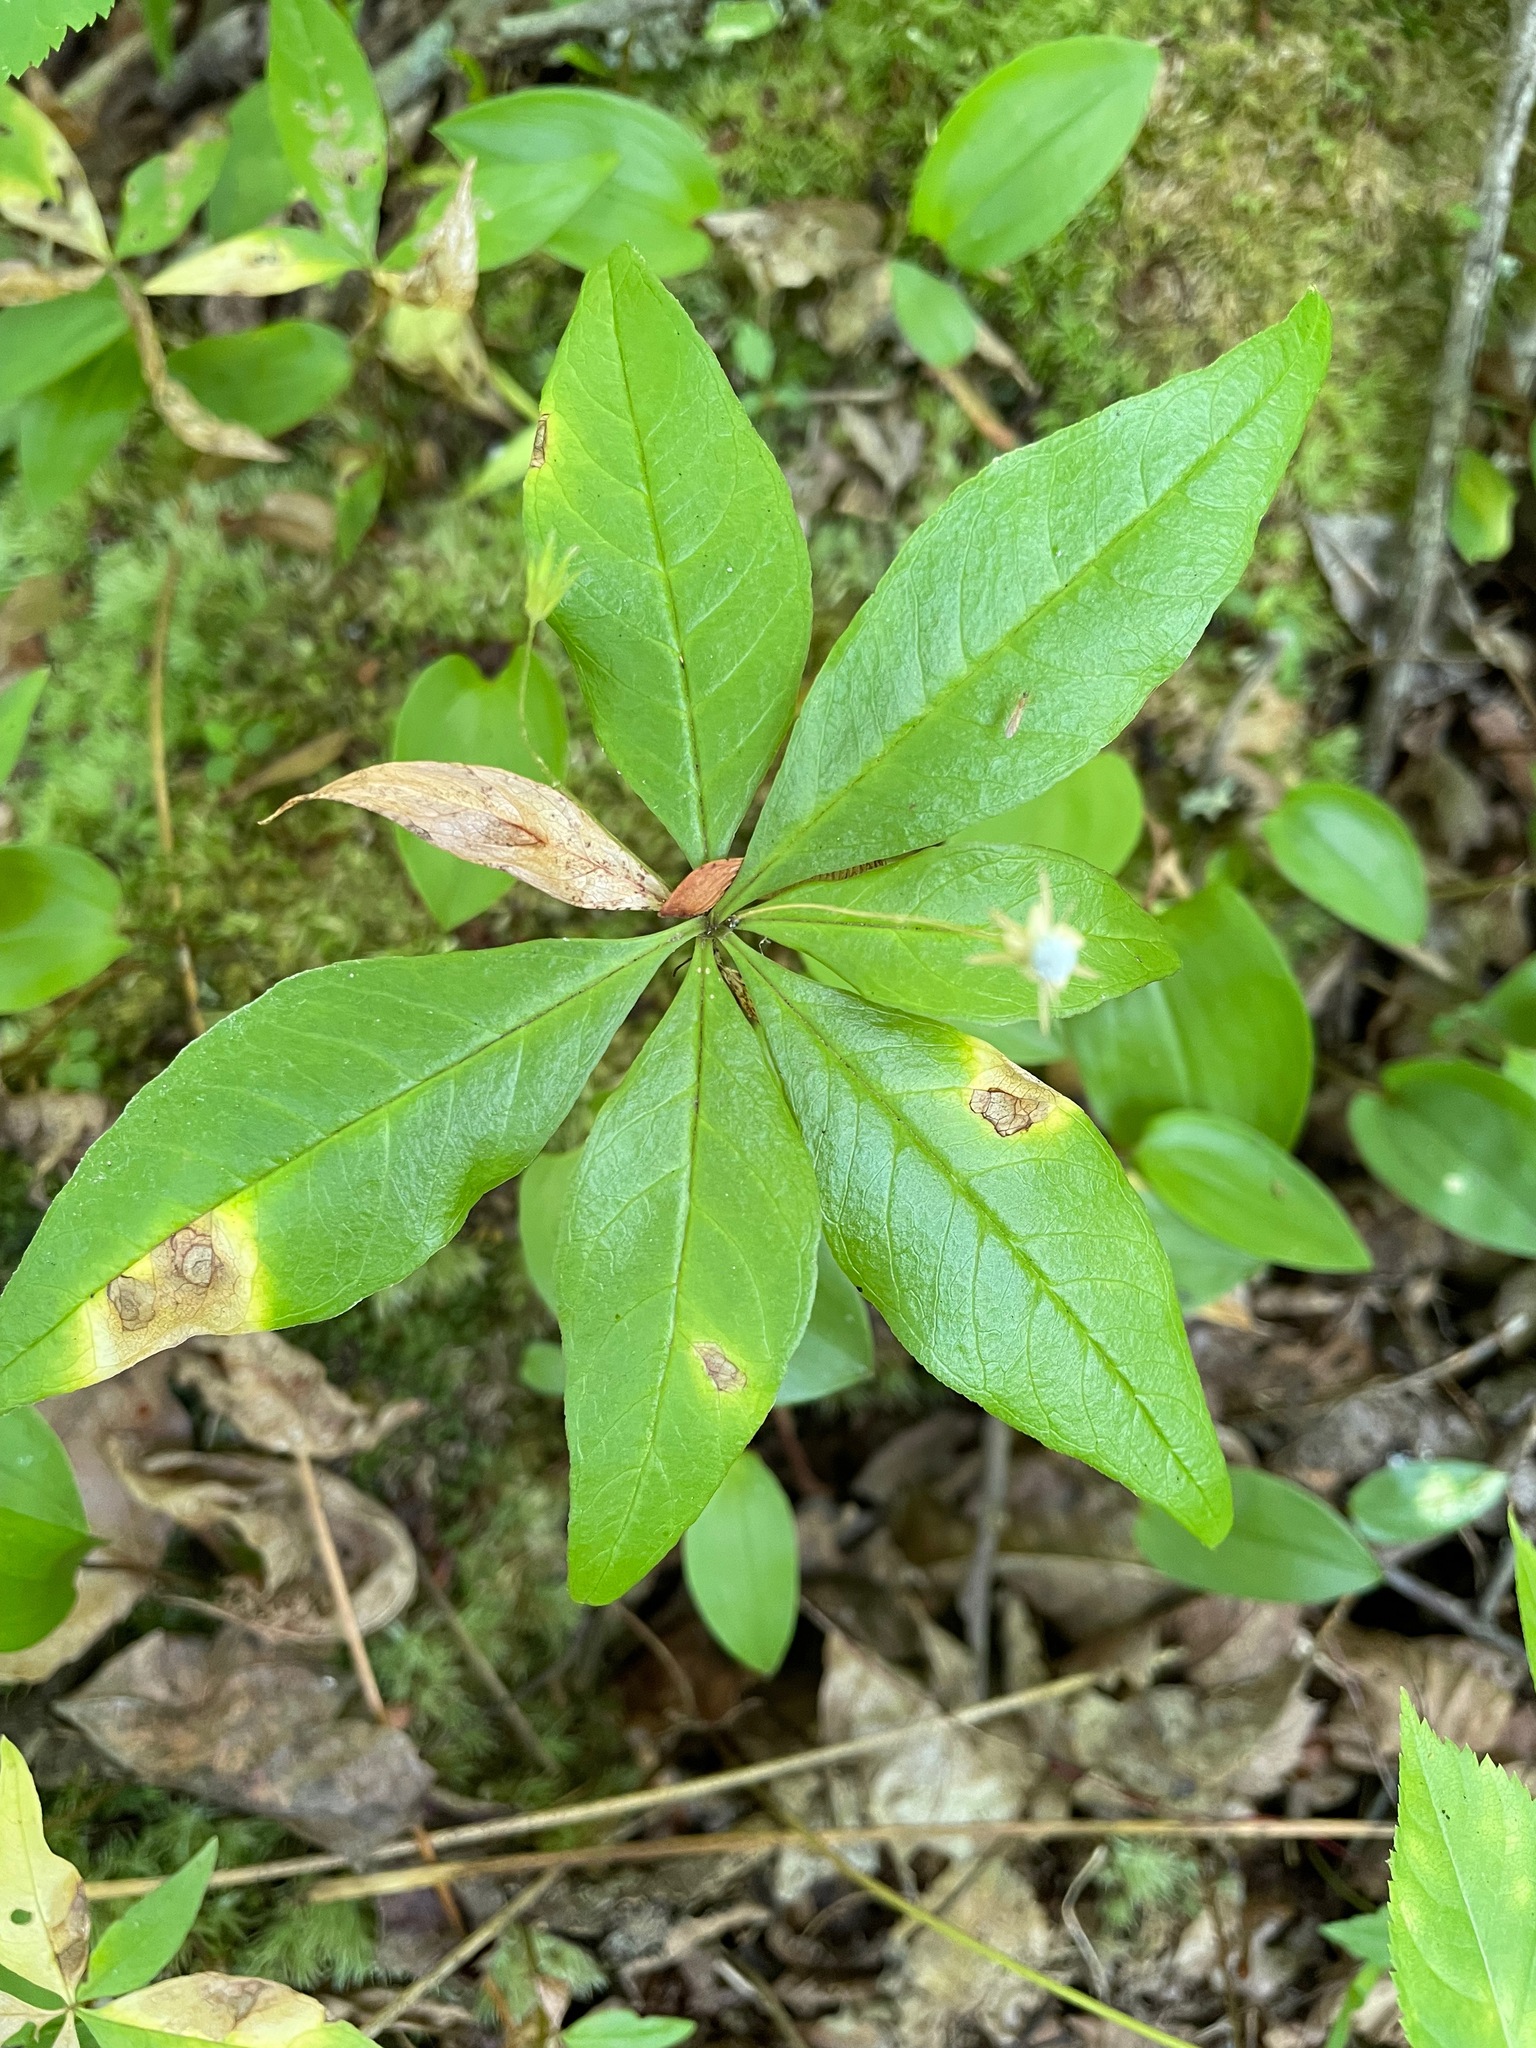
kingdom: Plantae
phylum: Tracheophyta
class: Magnoliopsida
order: Ericales
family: Primulaceae
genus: Lysimachia
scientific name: Lysimachia borealis
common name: American starflower
